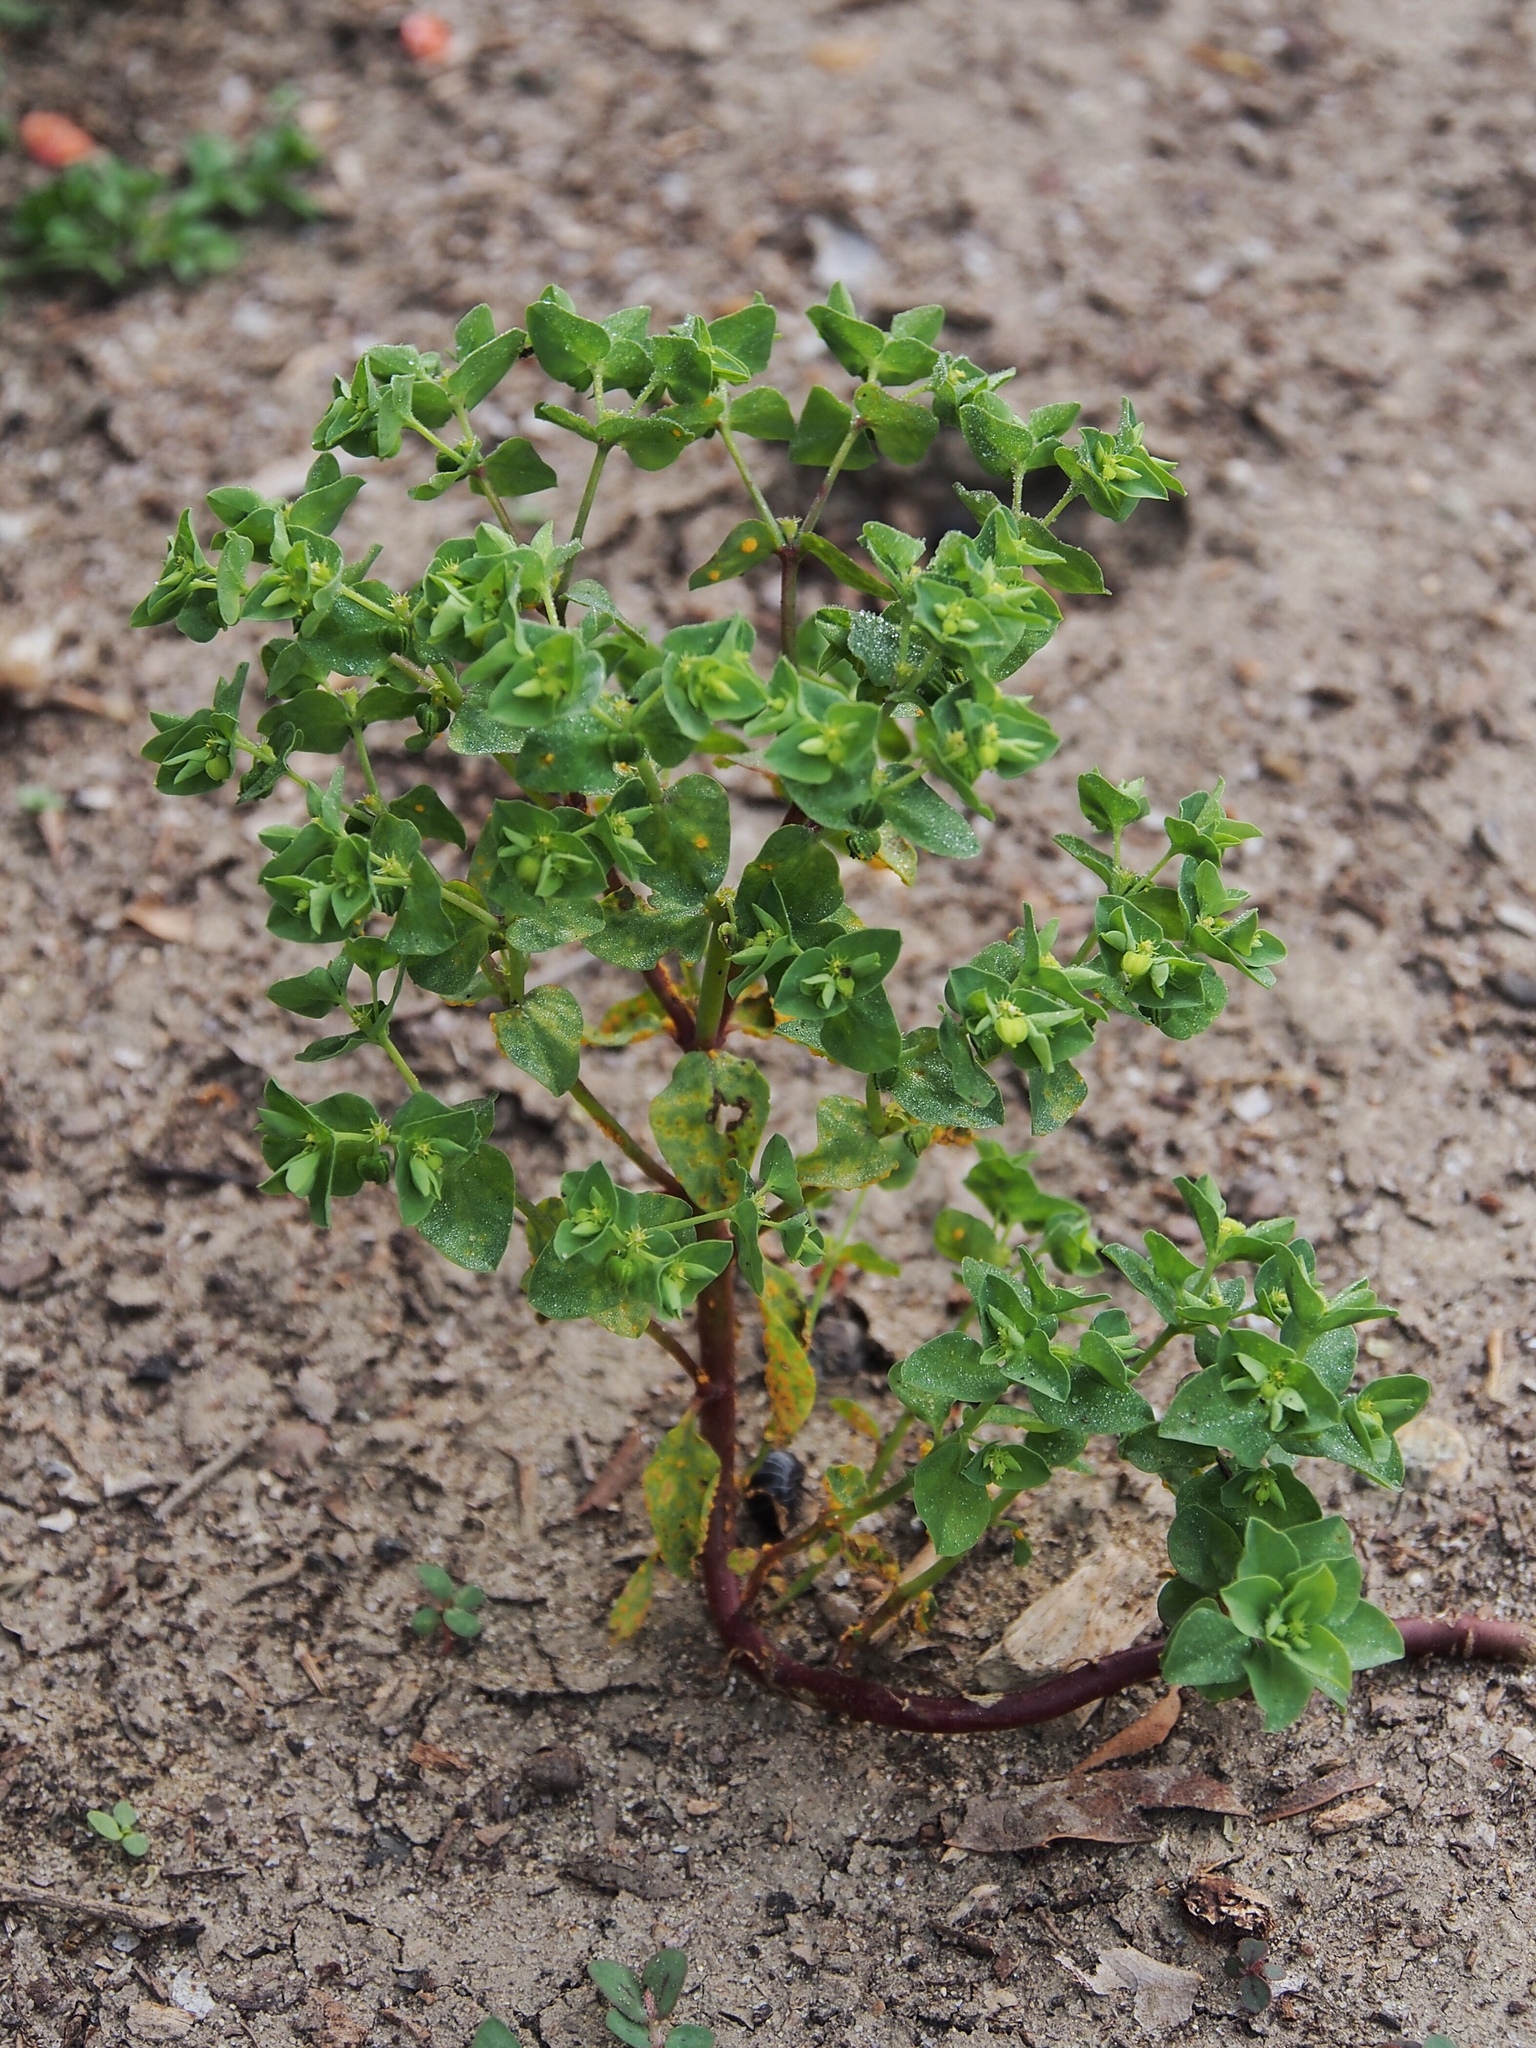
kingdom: Plantae
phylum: Tracheophyta
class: Magnoliopsida
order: Malpighiales
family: Euphorbiaceae
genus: Euphorbia
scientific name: Euphorbia peplus
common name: Petty spurge
